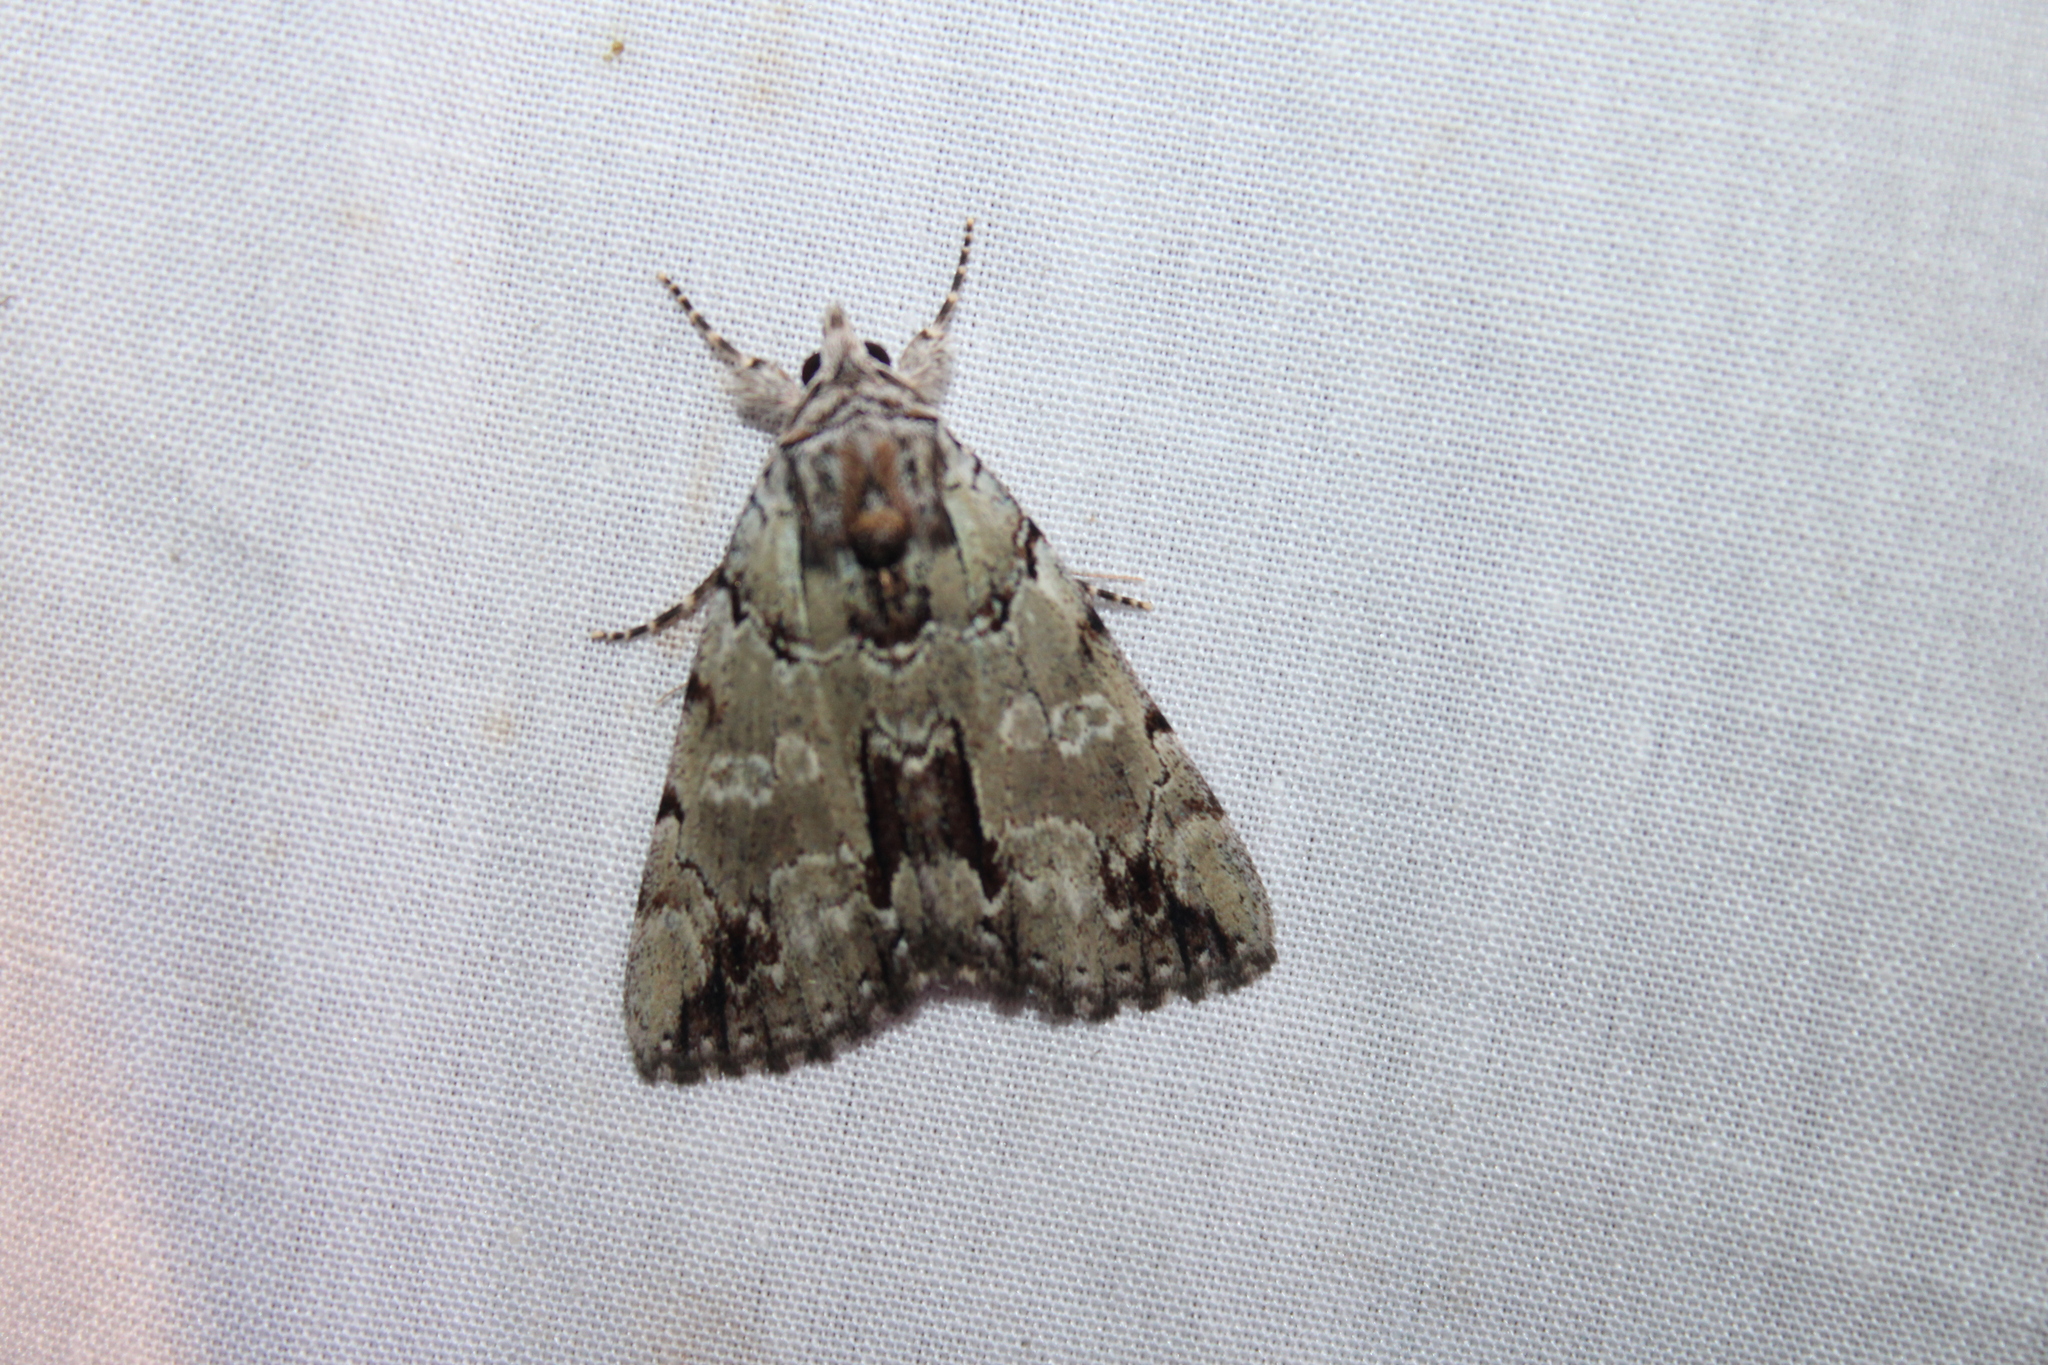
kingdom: Animalia
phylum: Arthropoda
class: Insecta
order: Lepidoptera
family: Erebidae
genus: Catocala
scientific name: Catocala praeclara
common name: Praeclara underwing
